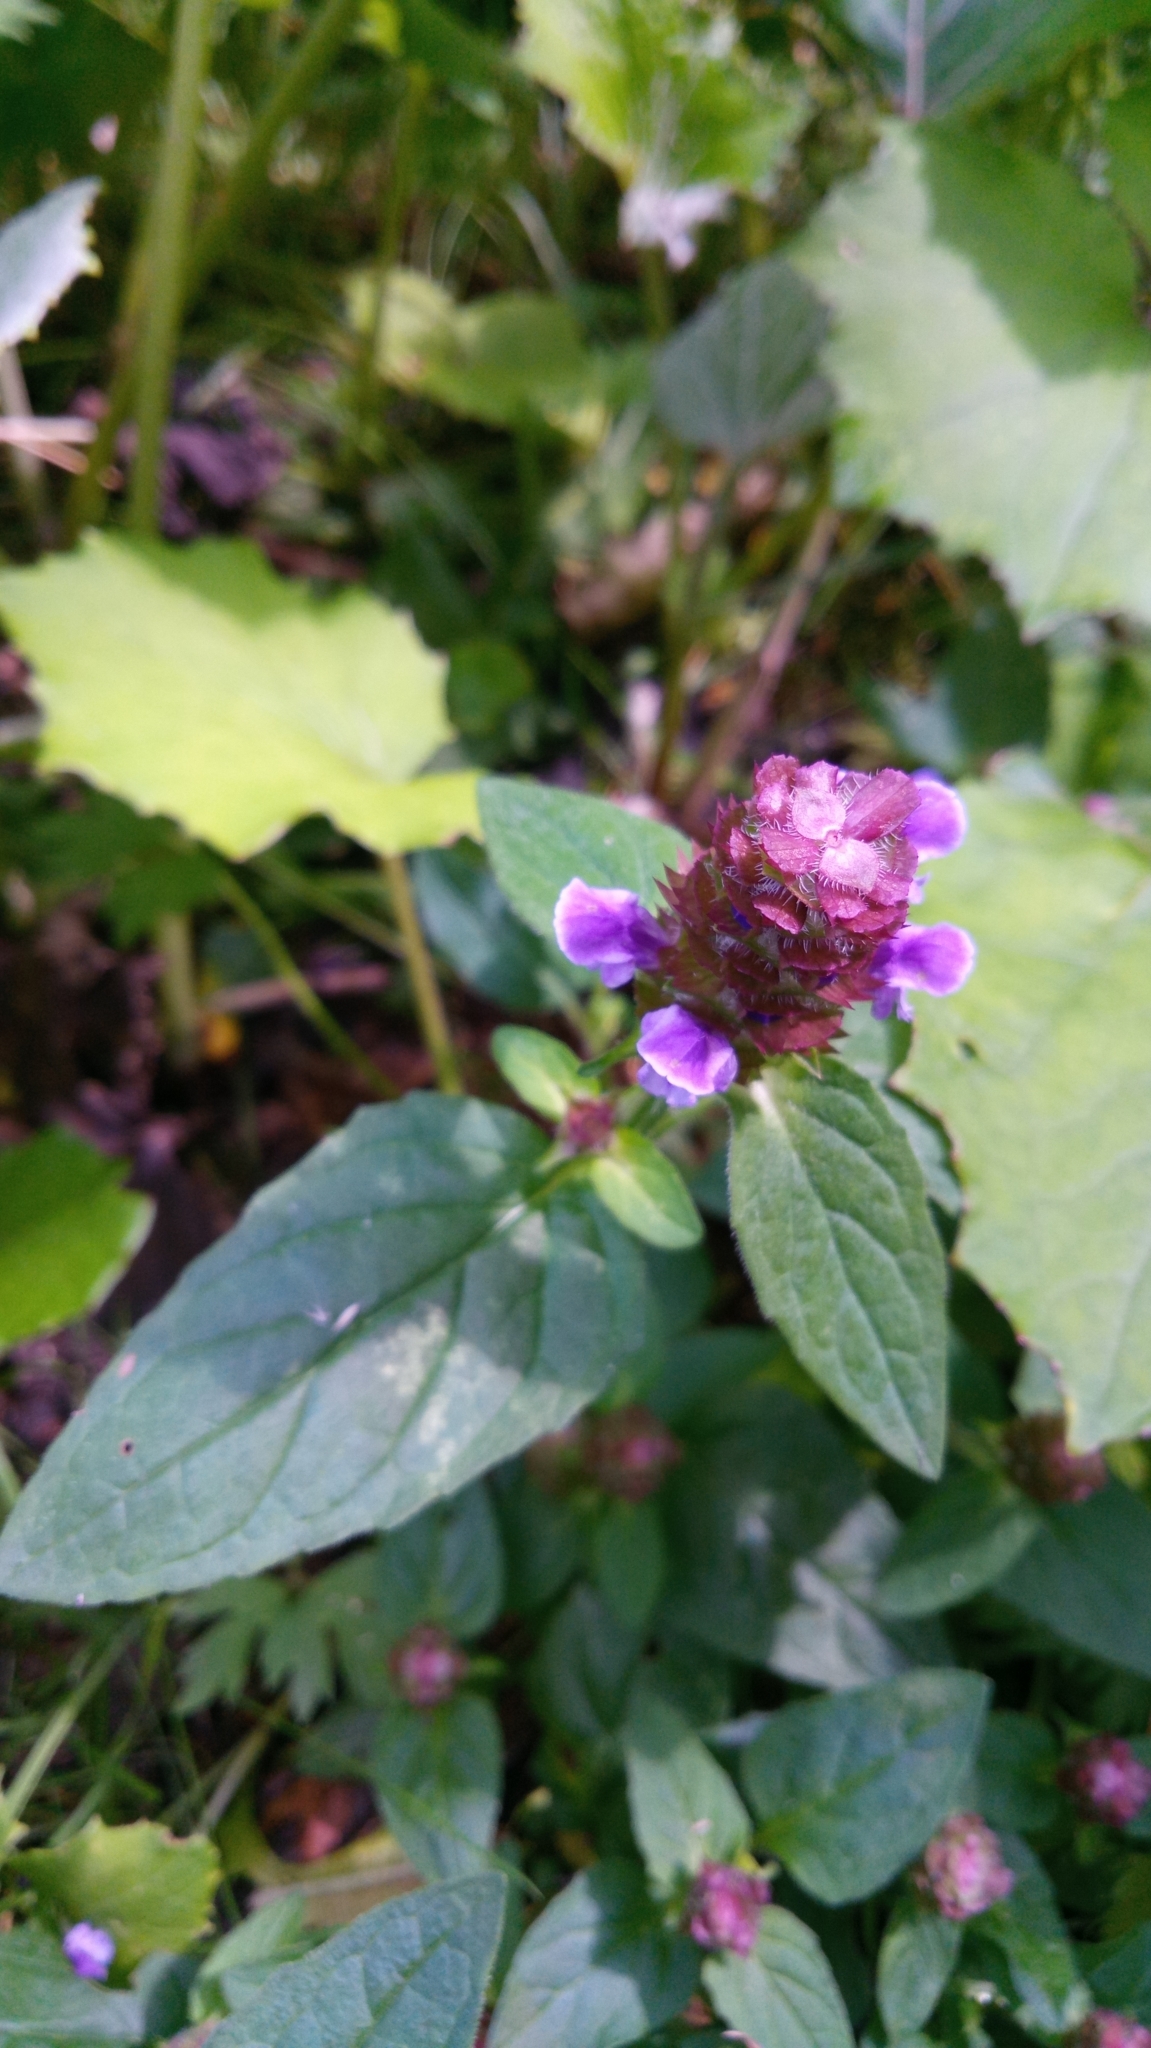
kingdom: Plantae
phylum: Tracheophyta
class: Magnoliopsida
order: Lamiales
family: Lamiaceae
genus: Prunella
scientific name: Prunella vulgaris
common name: Heal-all
